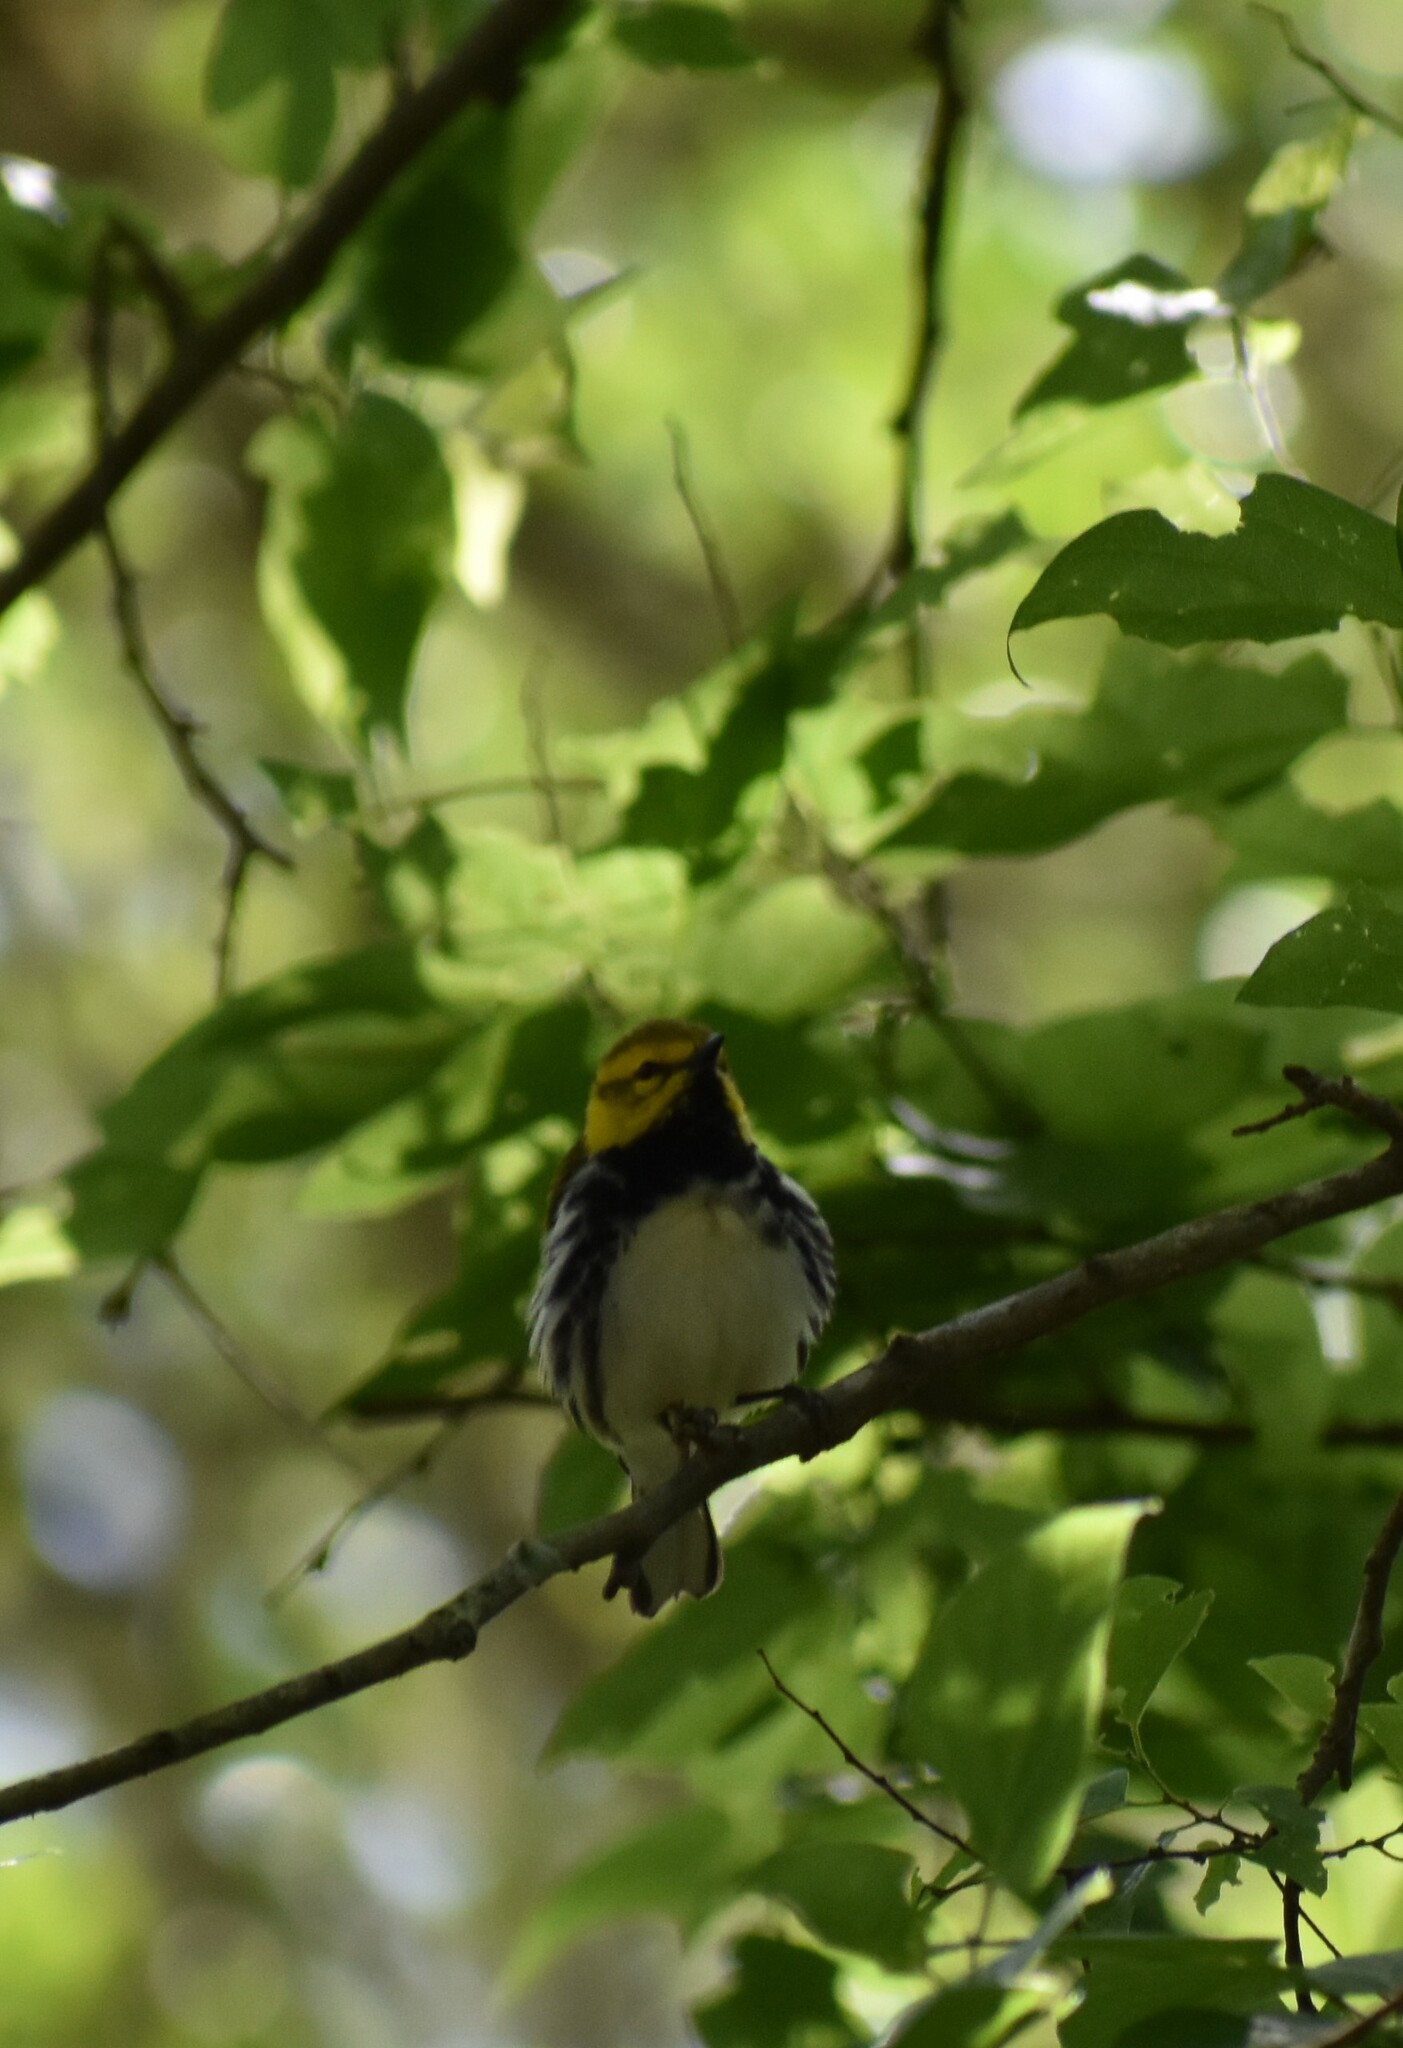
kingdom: Animalia
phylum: Chordata
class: Aves
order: Passeriformes
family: Parulidae
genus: Setophaga
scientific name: Setophaga virens
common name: Black-throated green warbler
